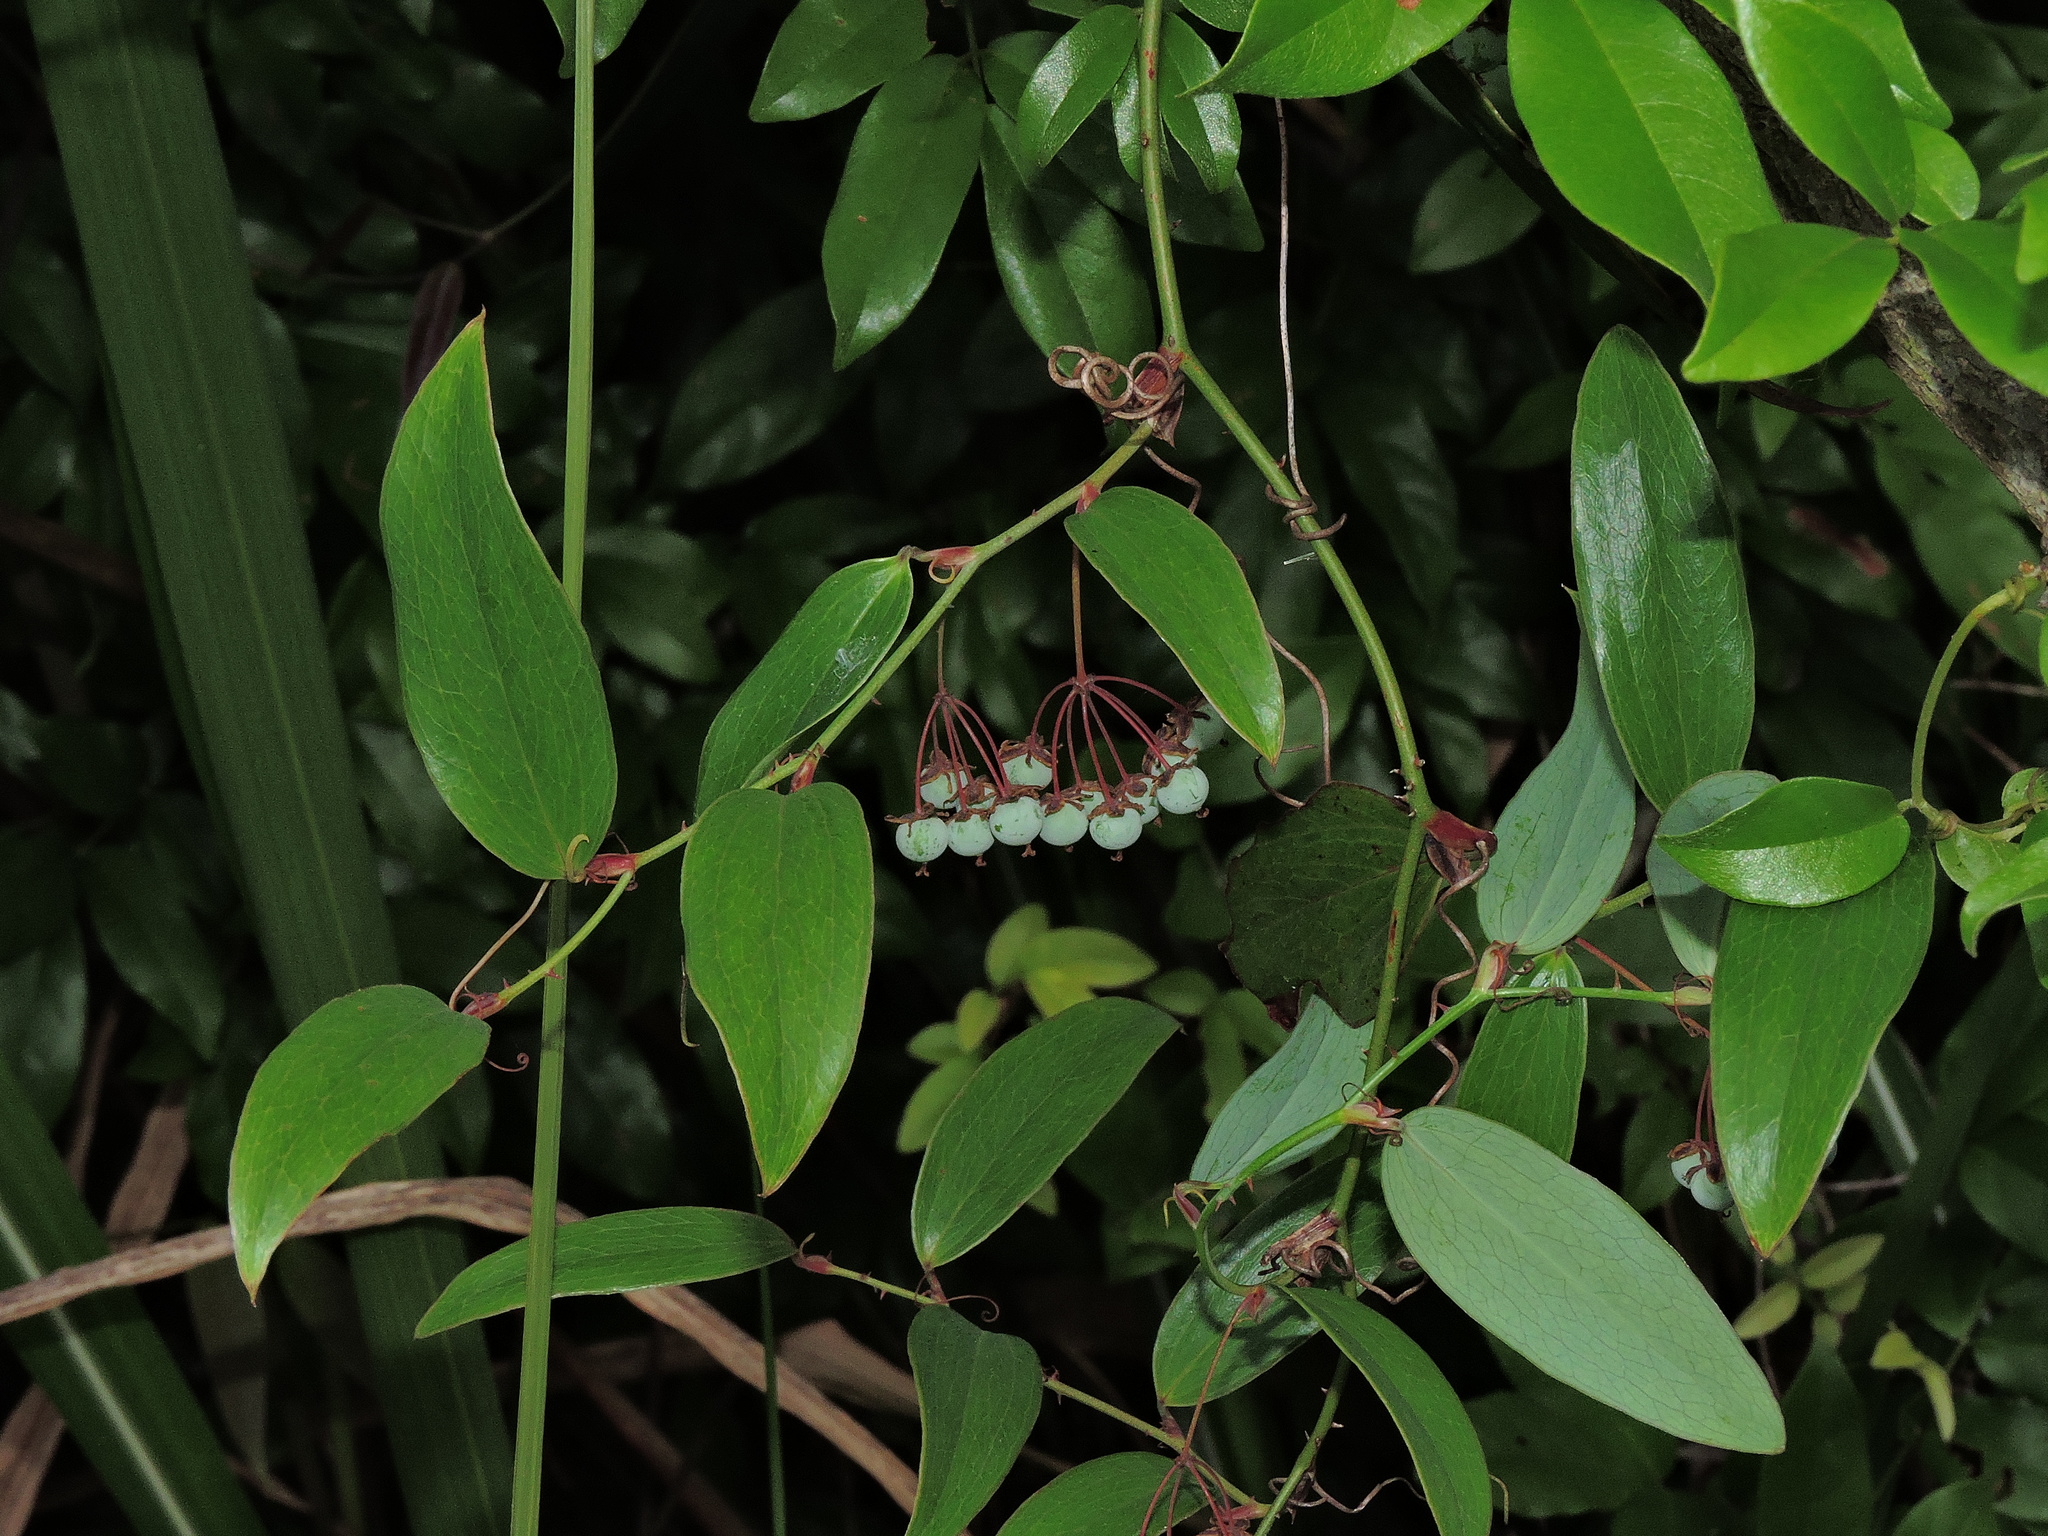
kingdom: Plantae
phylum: Tracheophyta
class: Liliopsida
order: Liliales
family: Smilacaceae
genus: Smilax
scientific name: Smilax elongatoumbellata
